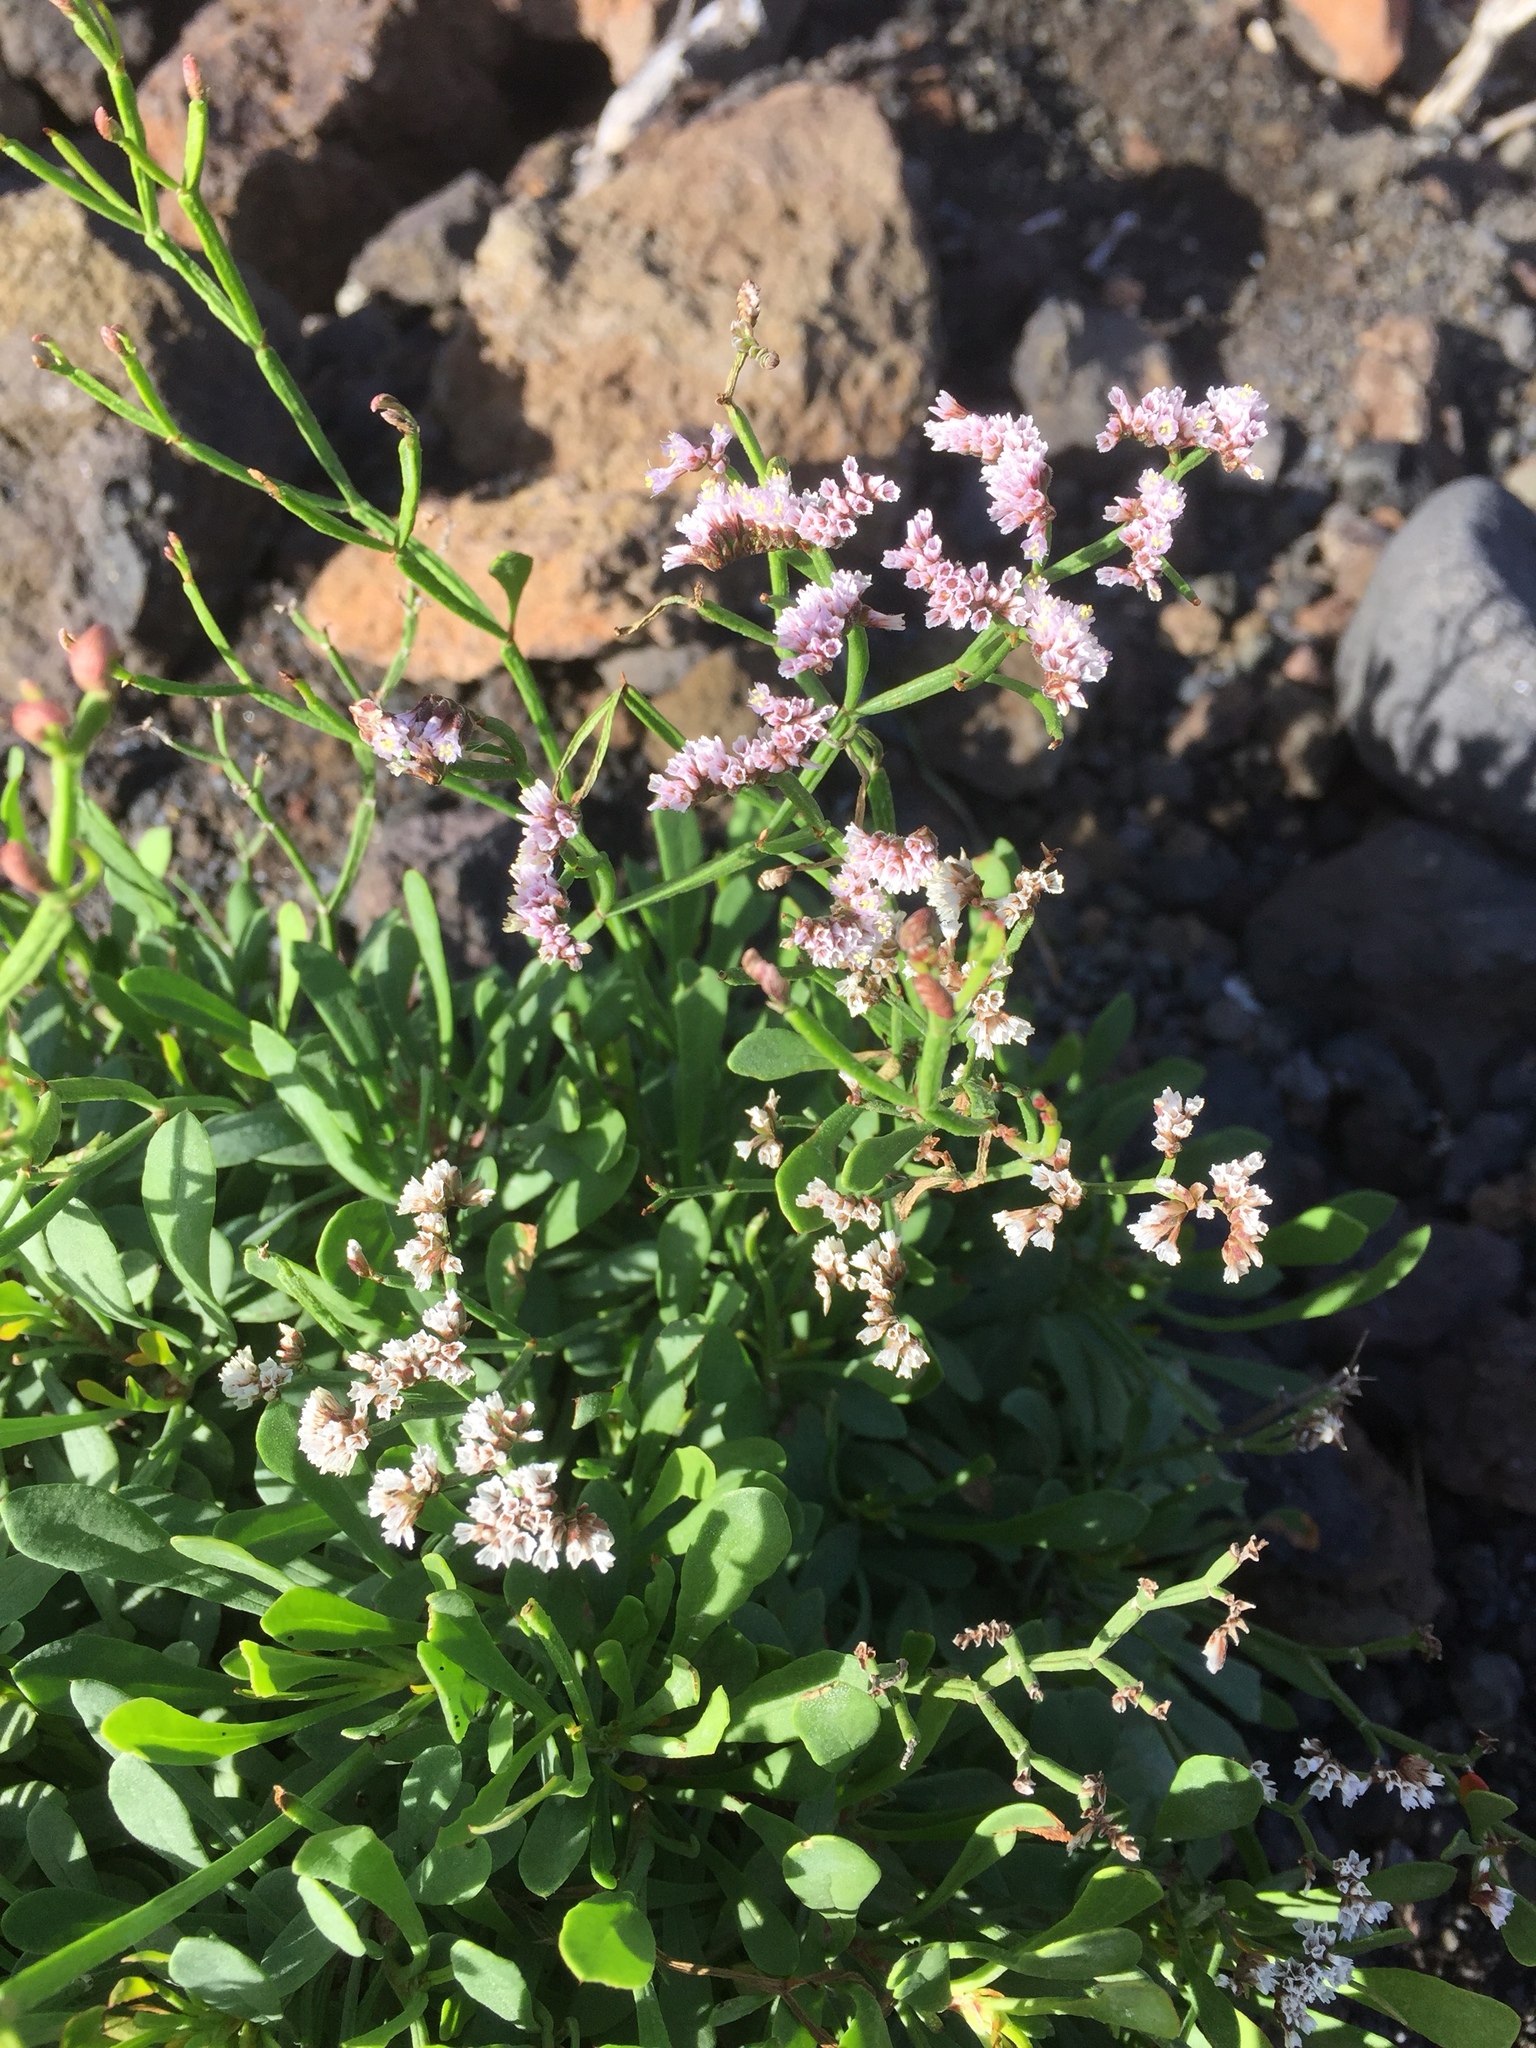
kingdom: Plantae
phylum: Tracheophyta
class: Magnoliopsida
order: Caryophyllales
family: Plumbaginaceae
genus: Limonium
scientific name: Limonium pectinatum
